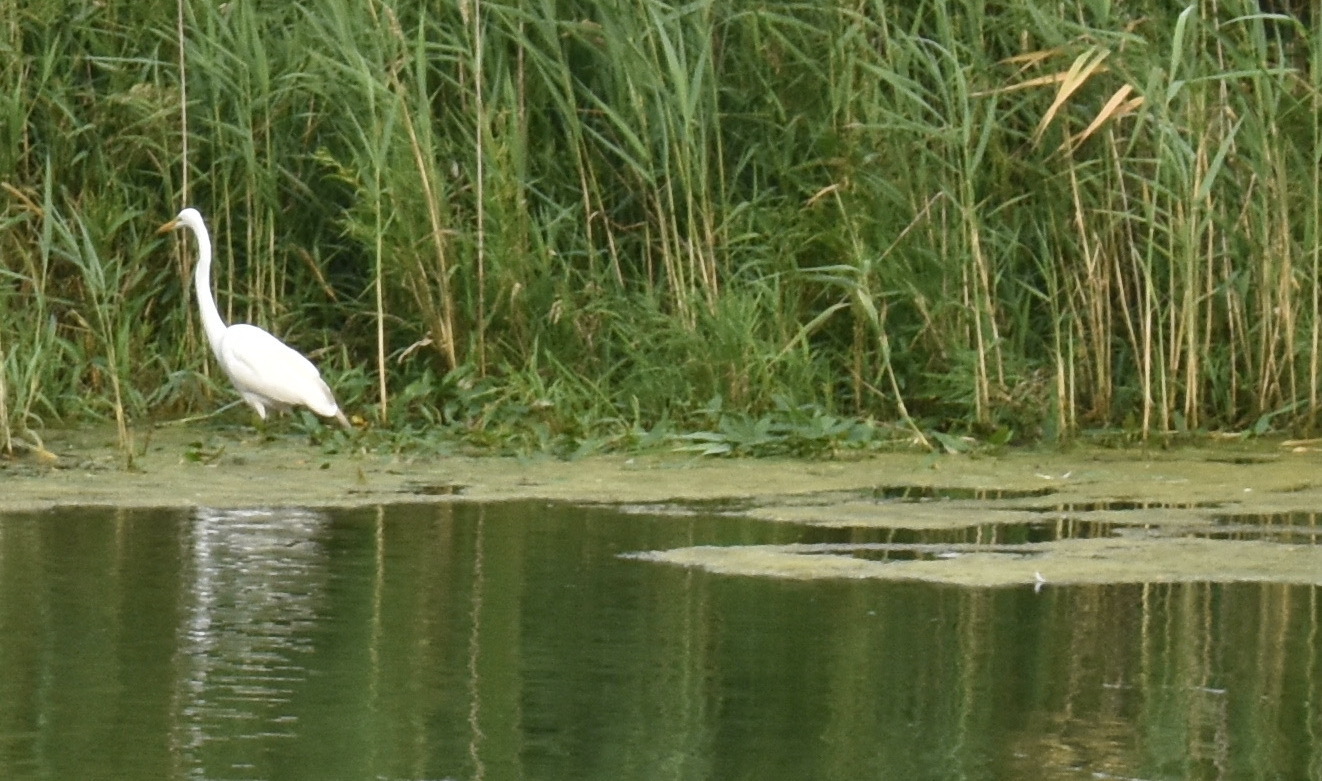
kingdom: Animalia
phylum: Chordata
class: Aves
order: Pelecaniformes
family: Ardeidae
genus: Ardea
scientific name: Ardea alba
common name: Great egret
